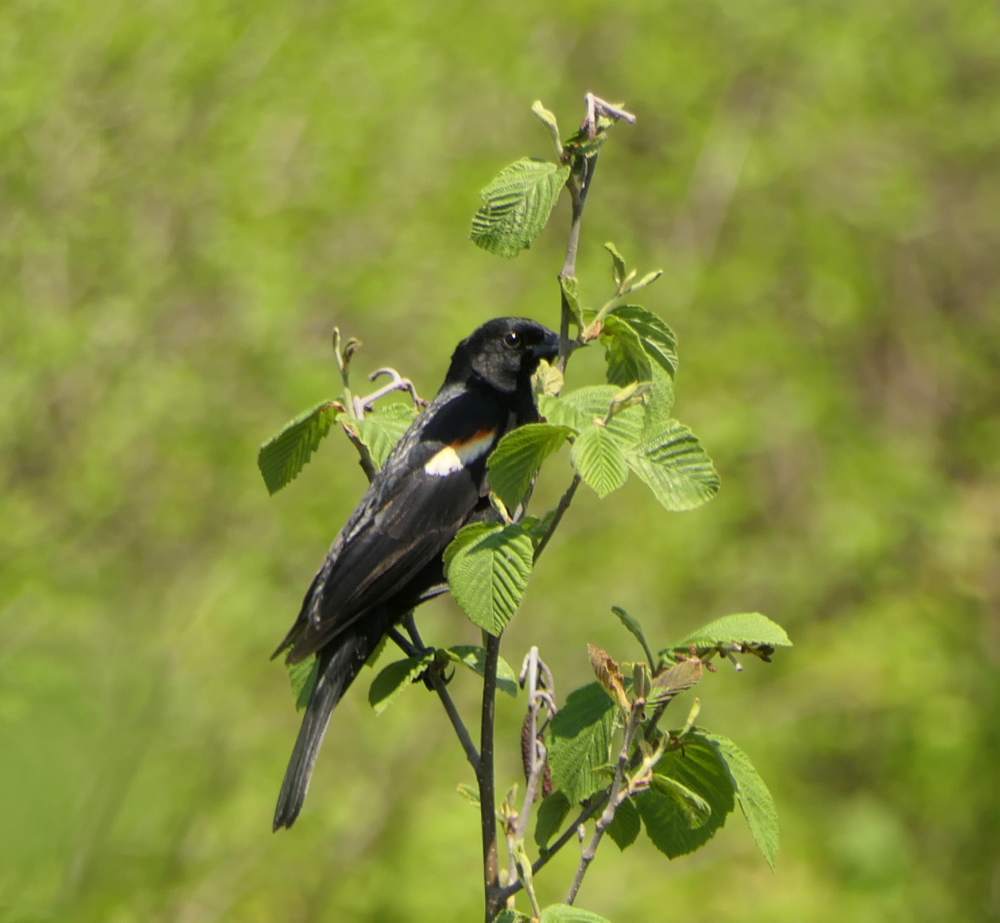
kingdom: Animalia
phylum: Chordata
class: Aves
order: Passeriformes
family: Icteridae
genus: Agelaius
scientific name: Agelaius phoeniceus
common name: Red-winged blackbird
